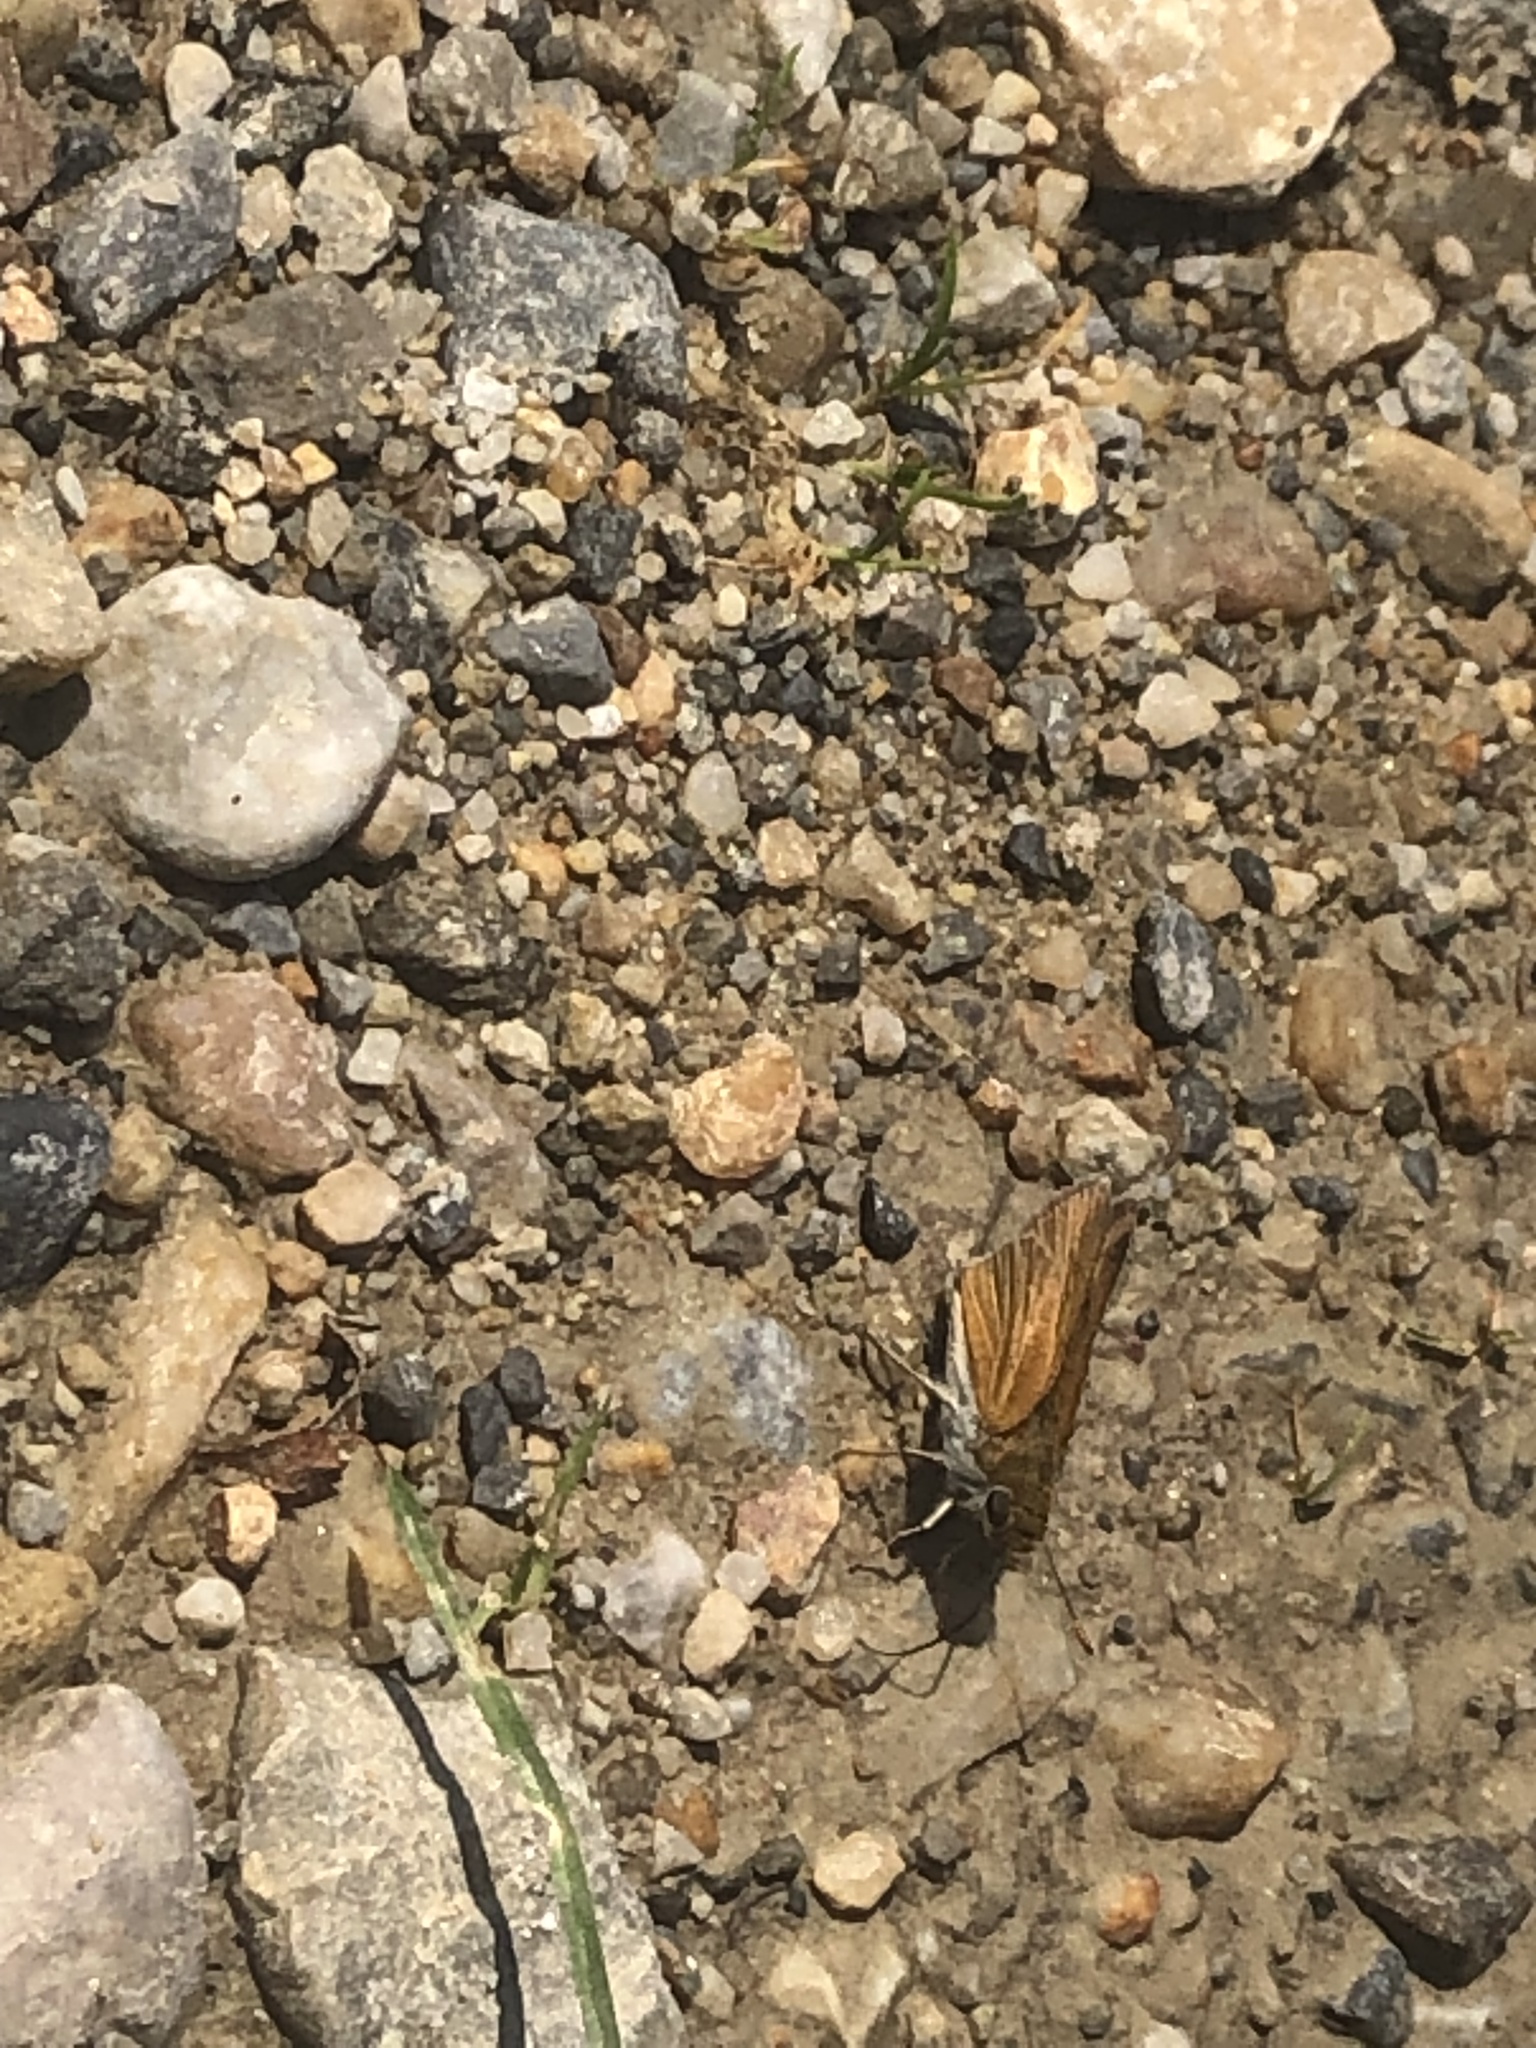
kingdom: Animalia
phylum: Arthropoda
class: Insecta
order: Lepidoptera
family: Hesperiidae
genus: Euphyes
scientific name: Euphyes bimacula
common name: Two-spotted skipper
